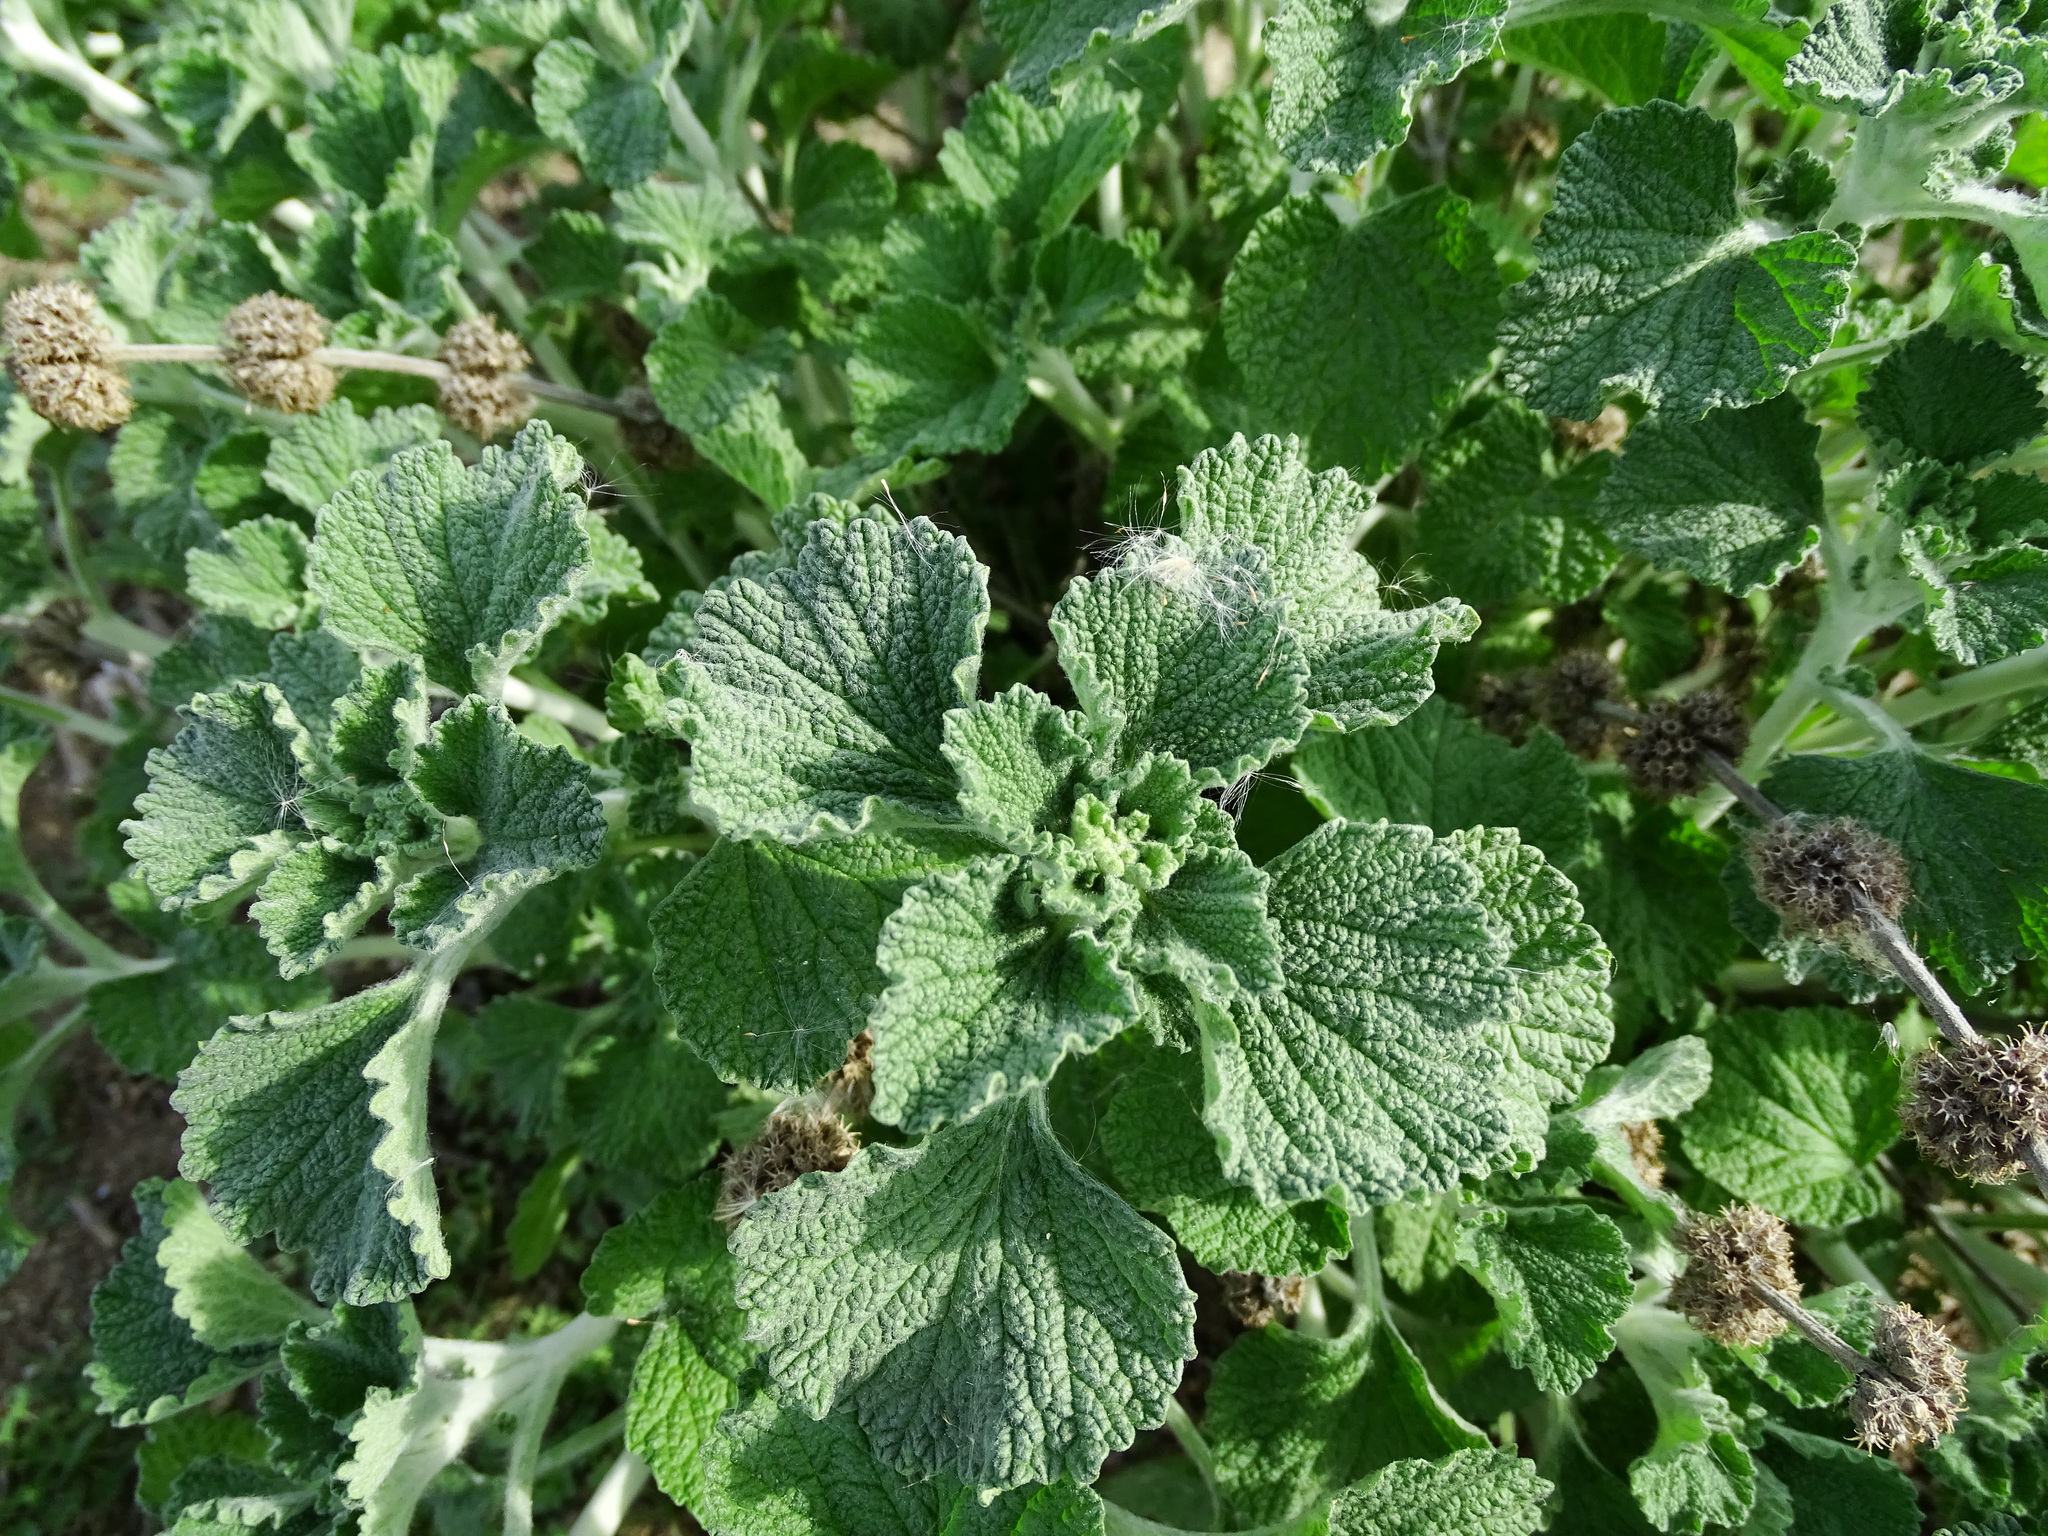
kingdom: Plantae
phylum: Tracheophyta
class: Magnoliopsida
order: Lamiales
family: Lamiaceae
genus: Marrubium
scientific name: Marrubium vulgare
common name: Horehound
